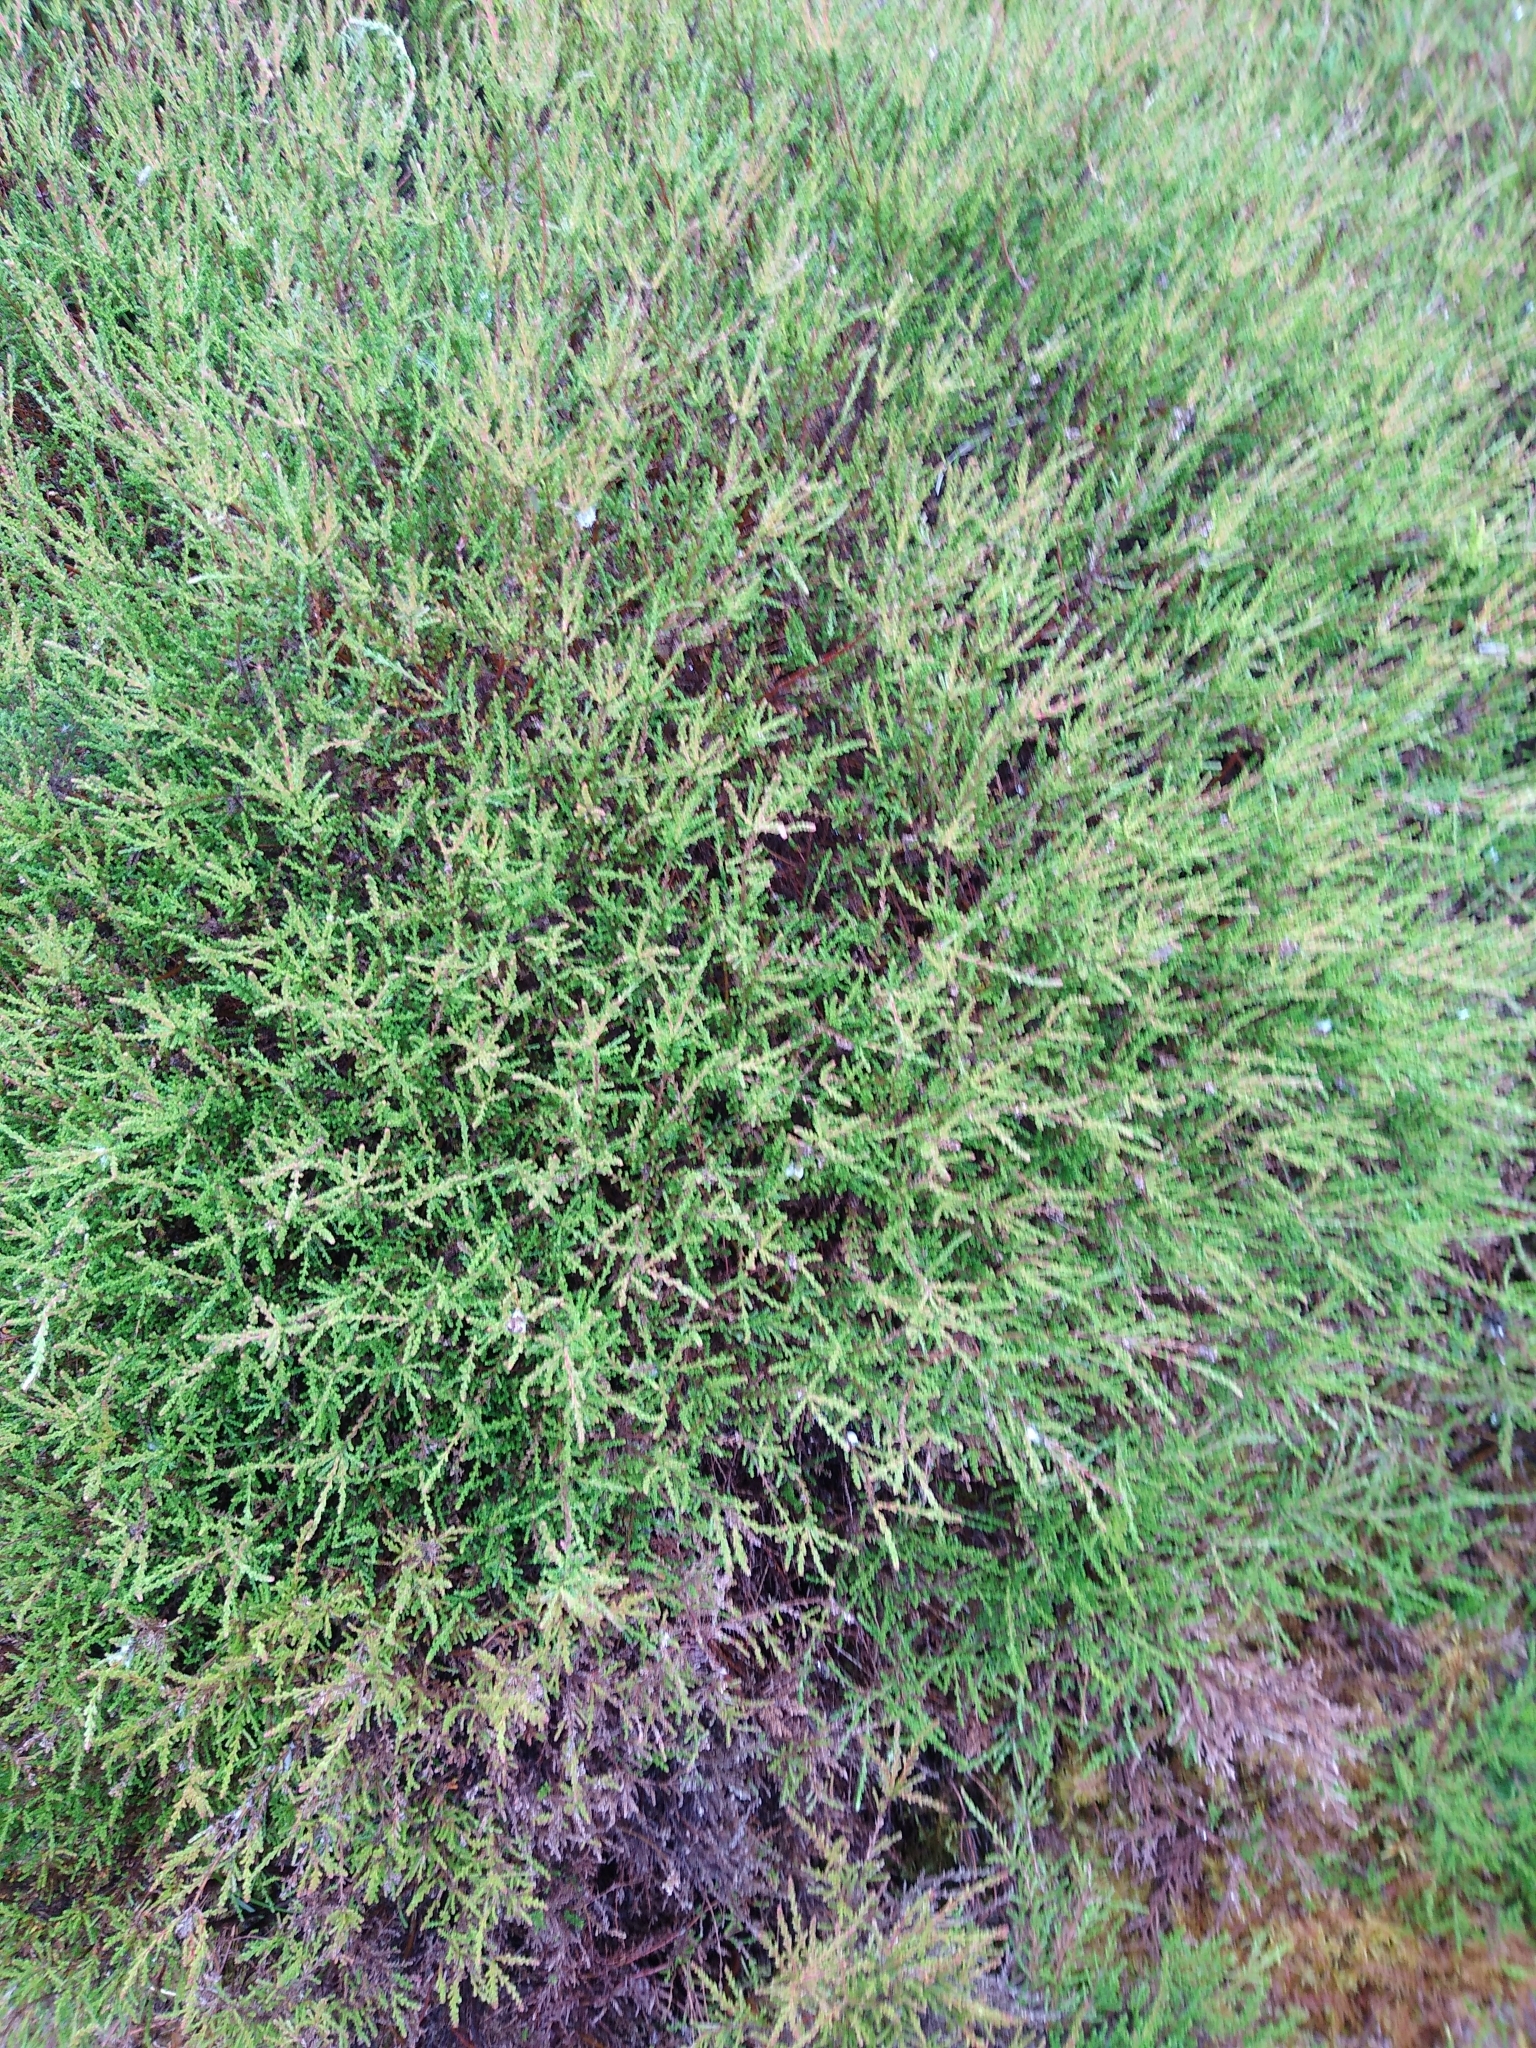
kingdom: Plantae
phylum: Tracheophyta
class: Magnoliopsida
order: Ericales
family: Ericaceae
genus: Calluna
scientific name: Calluna vulgaris
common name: Heather
